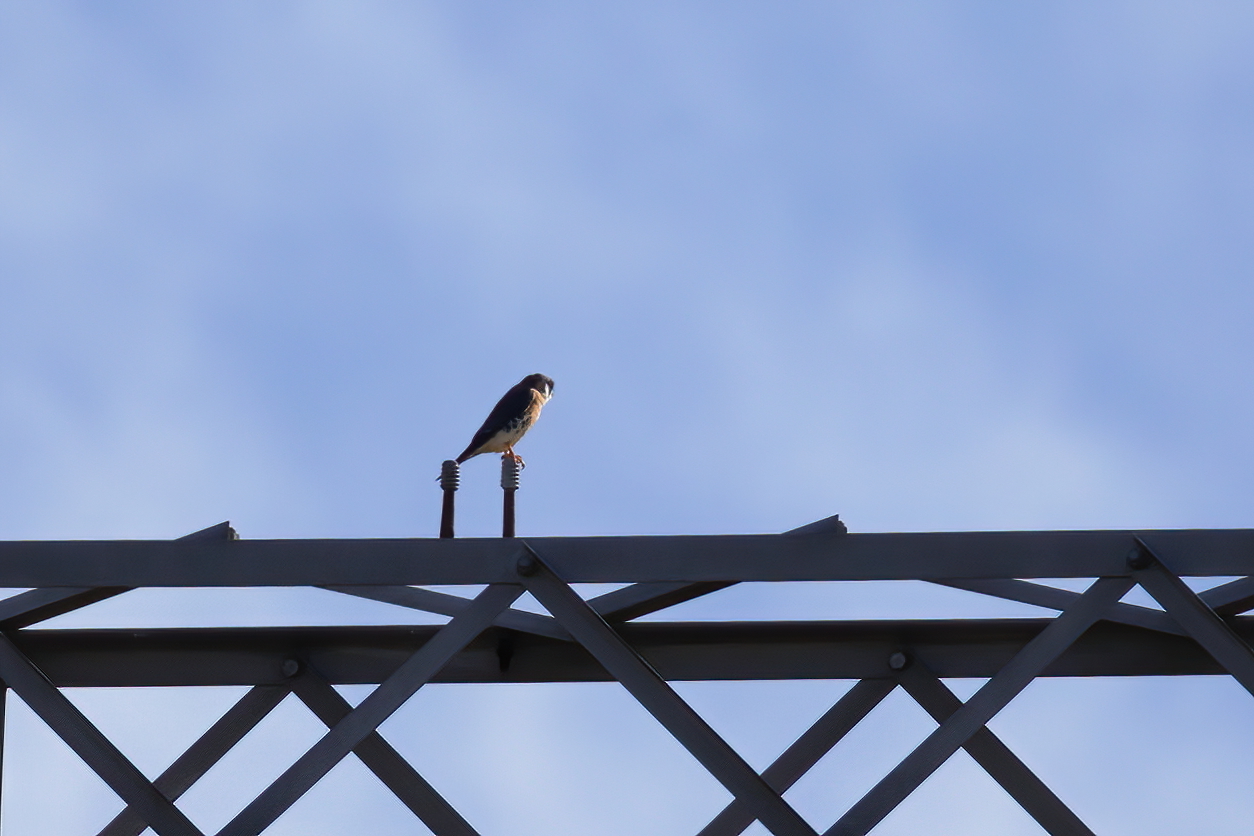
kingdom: Animalia
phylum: Chordata
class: Aves
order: Falconiformes
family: Falconidae
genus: Falco
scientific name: Falco sparverius
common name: American kestrel
